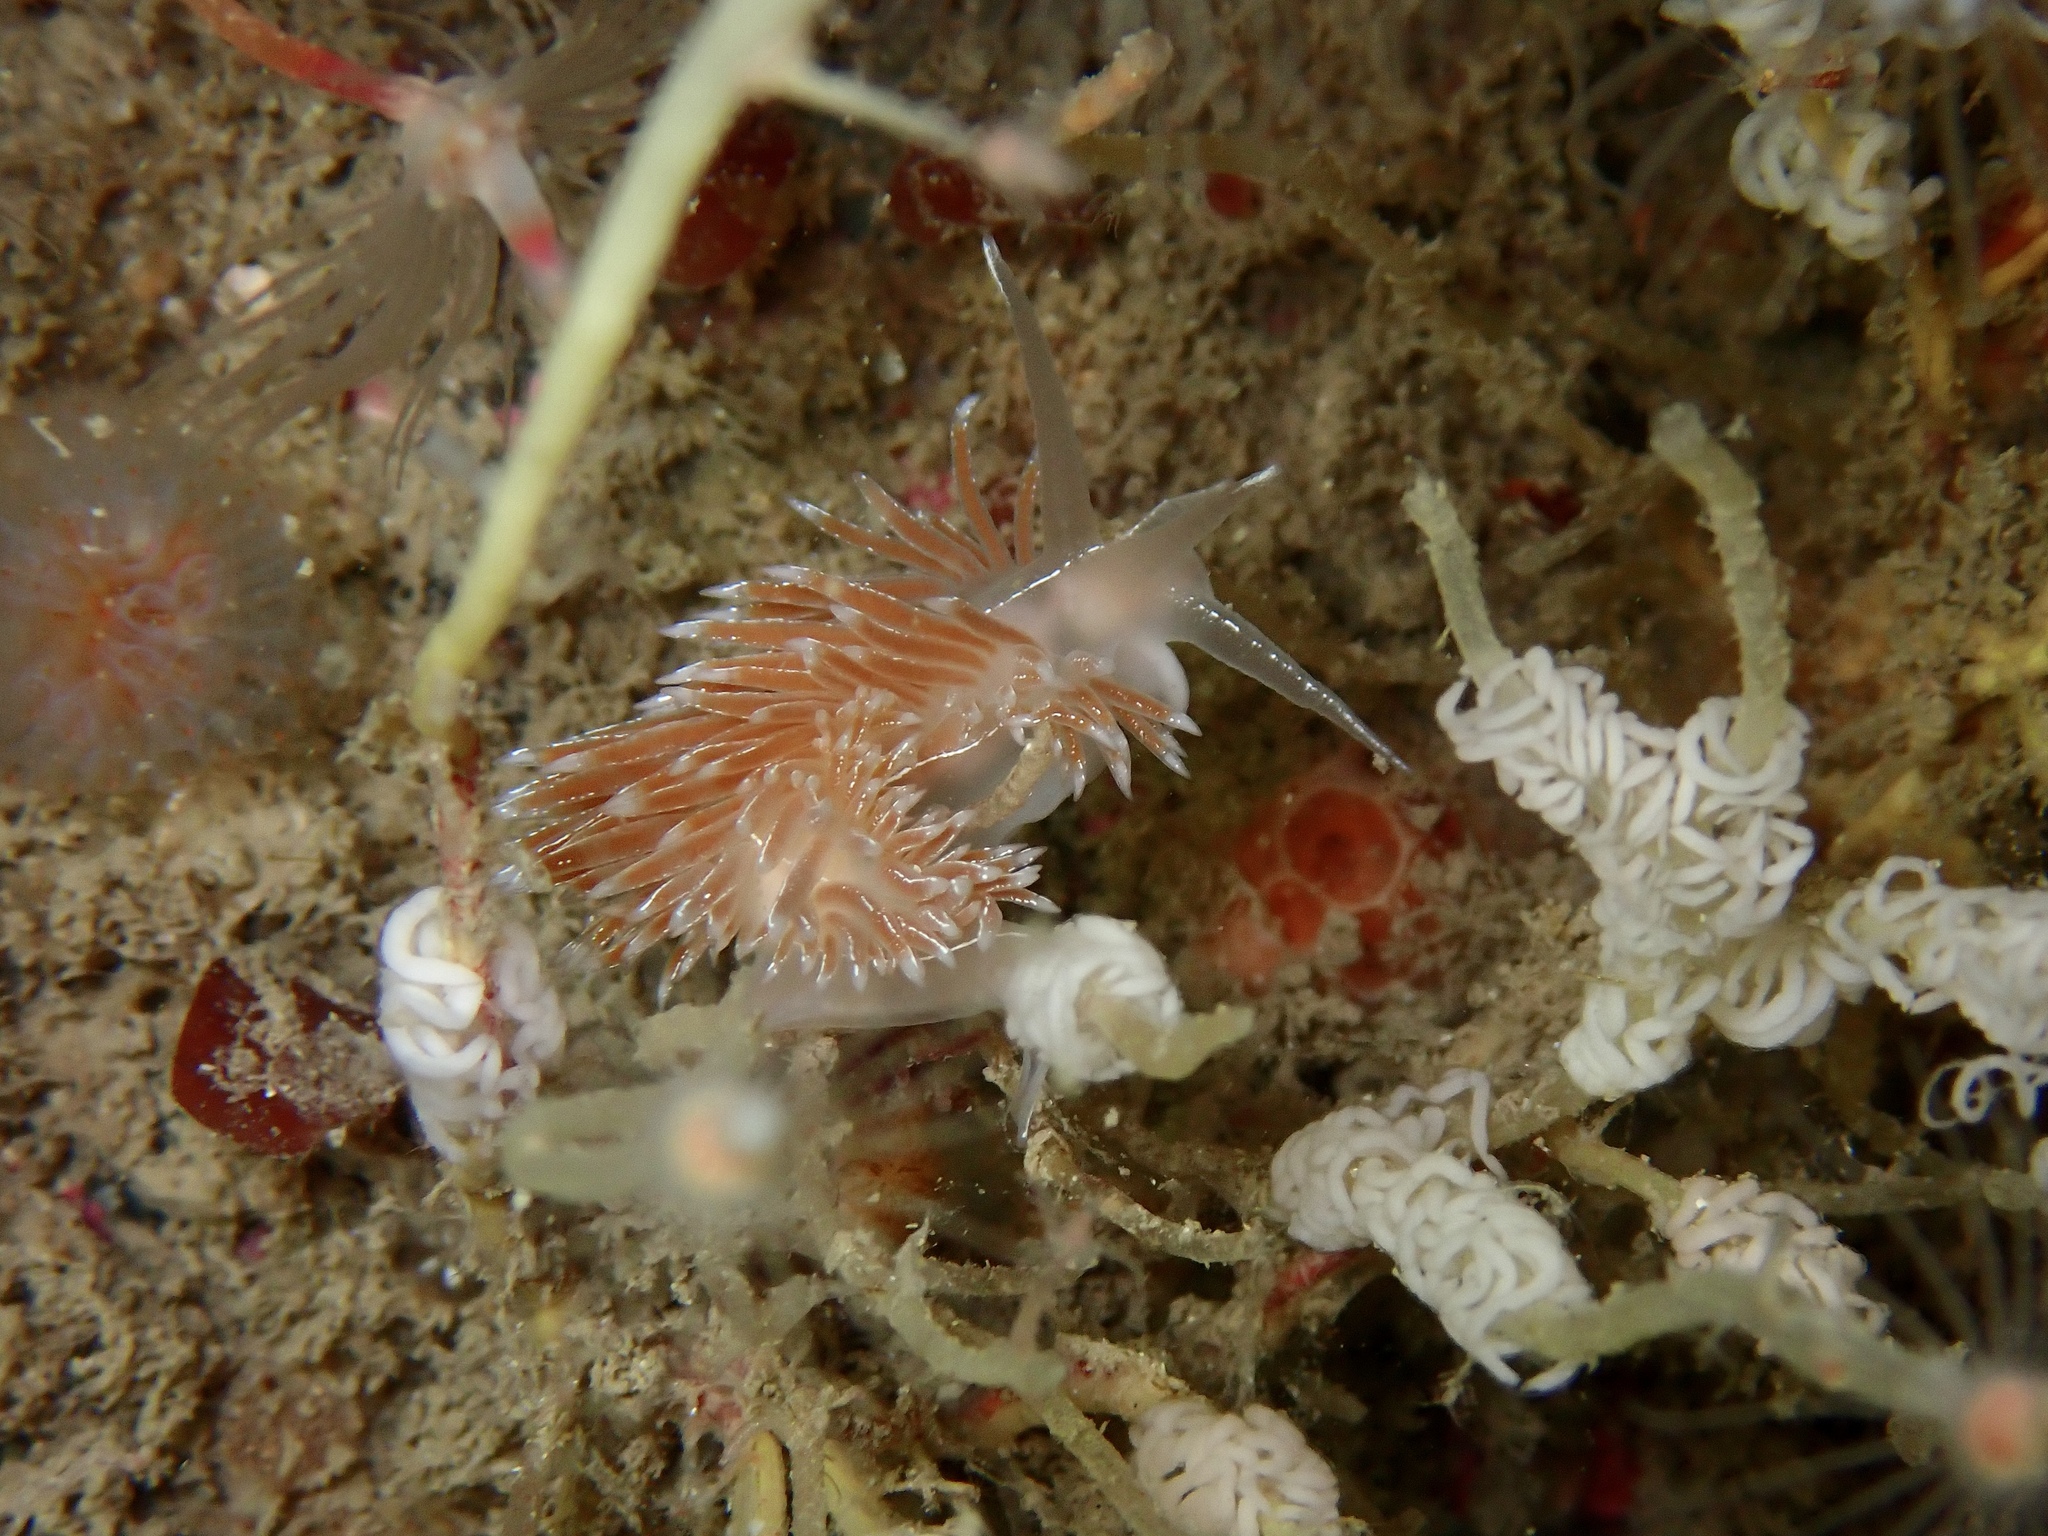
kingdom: Animalia
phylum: Mollusca
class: Gastropoda
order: Nudibranchia
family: Coryphellidae
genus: Coryphella
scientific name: Coryphella chriskaugei
